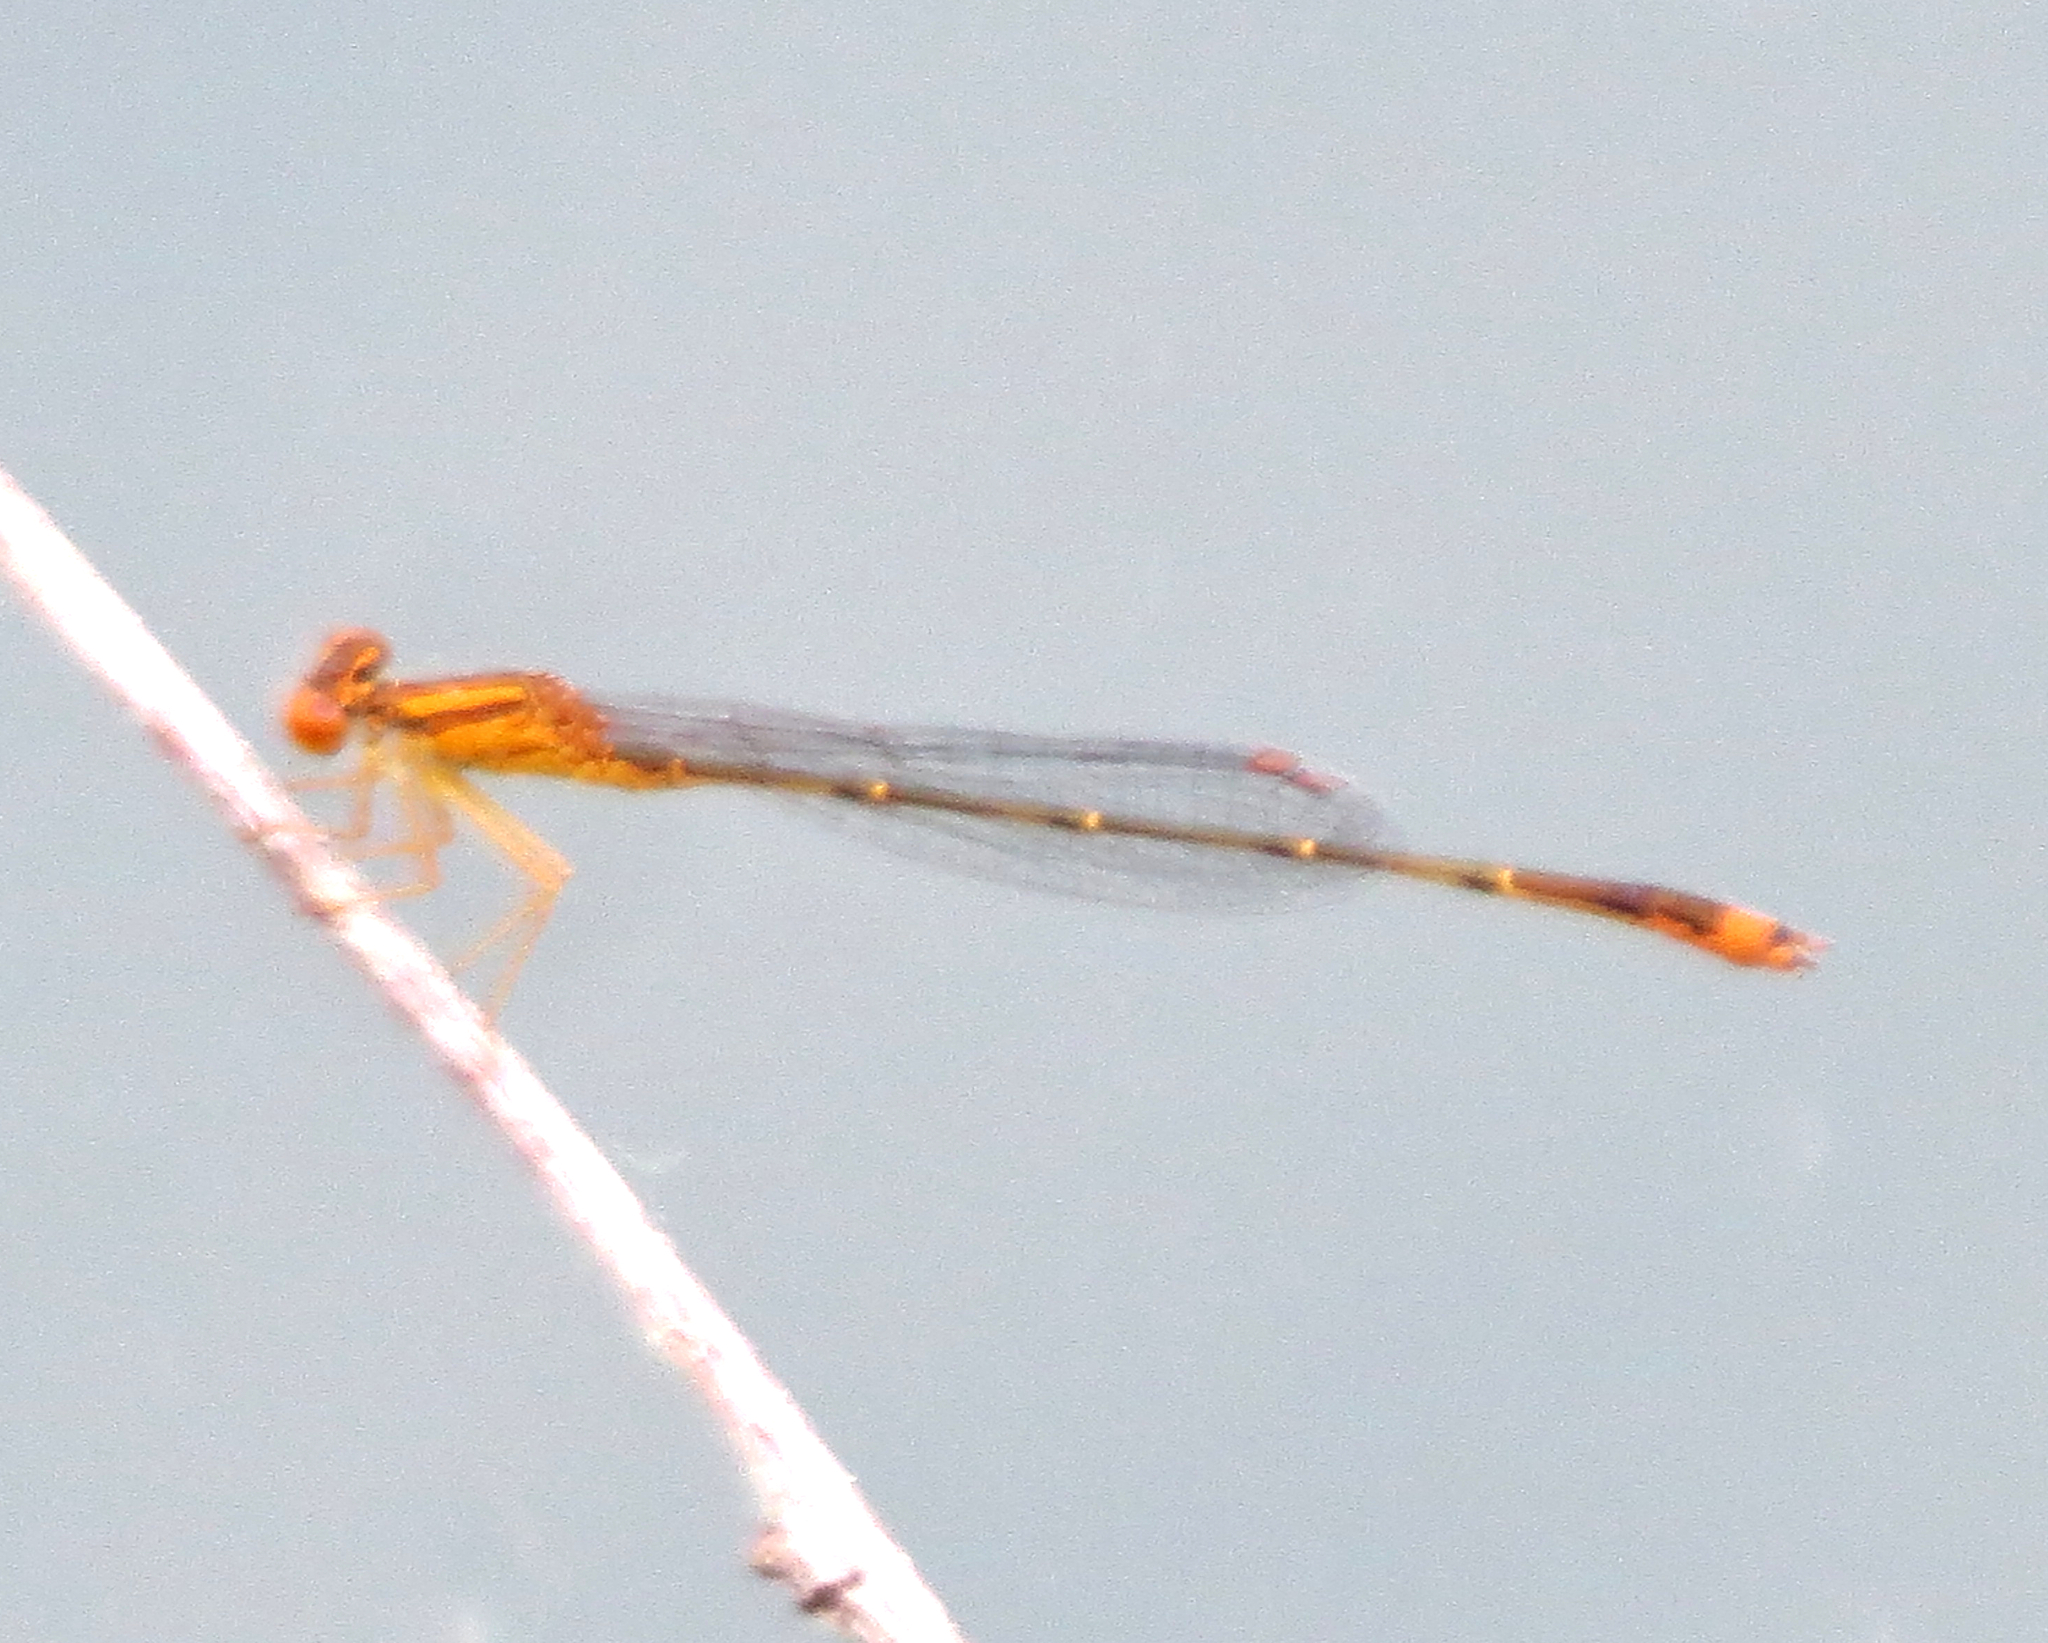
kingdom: Animalia
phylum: Arthropoda
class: Insecta
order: Odonata
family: Coenagrionidae
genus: Enallagma
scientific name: Enallagma signatum
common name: Orange bluet
